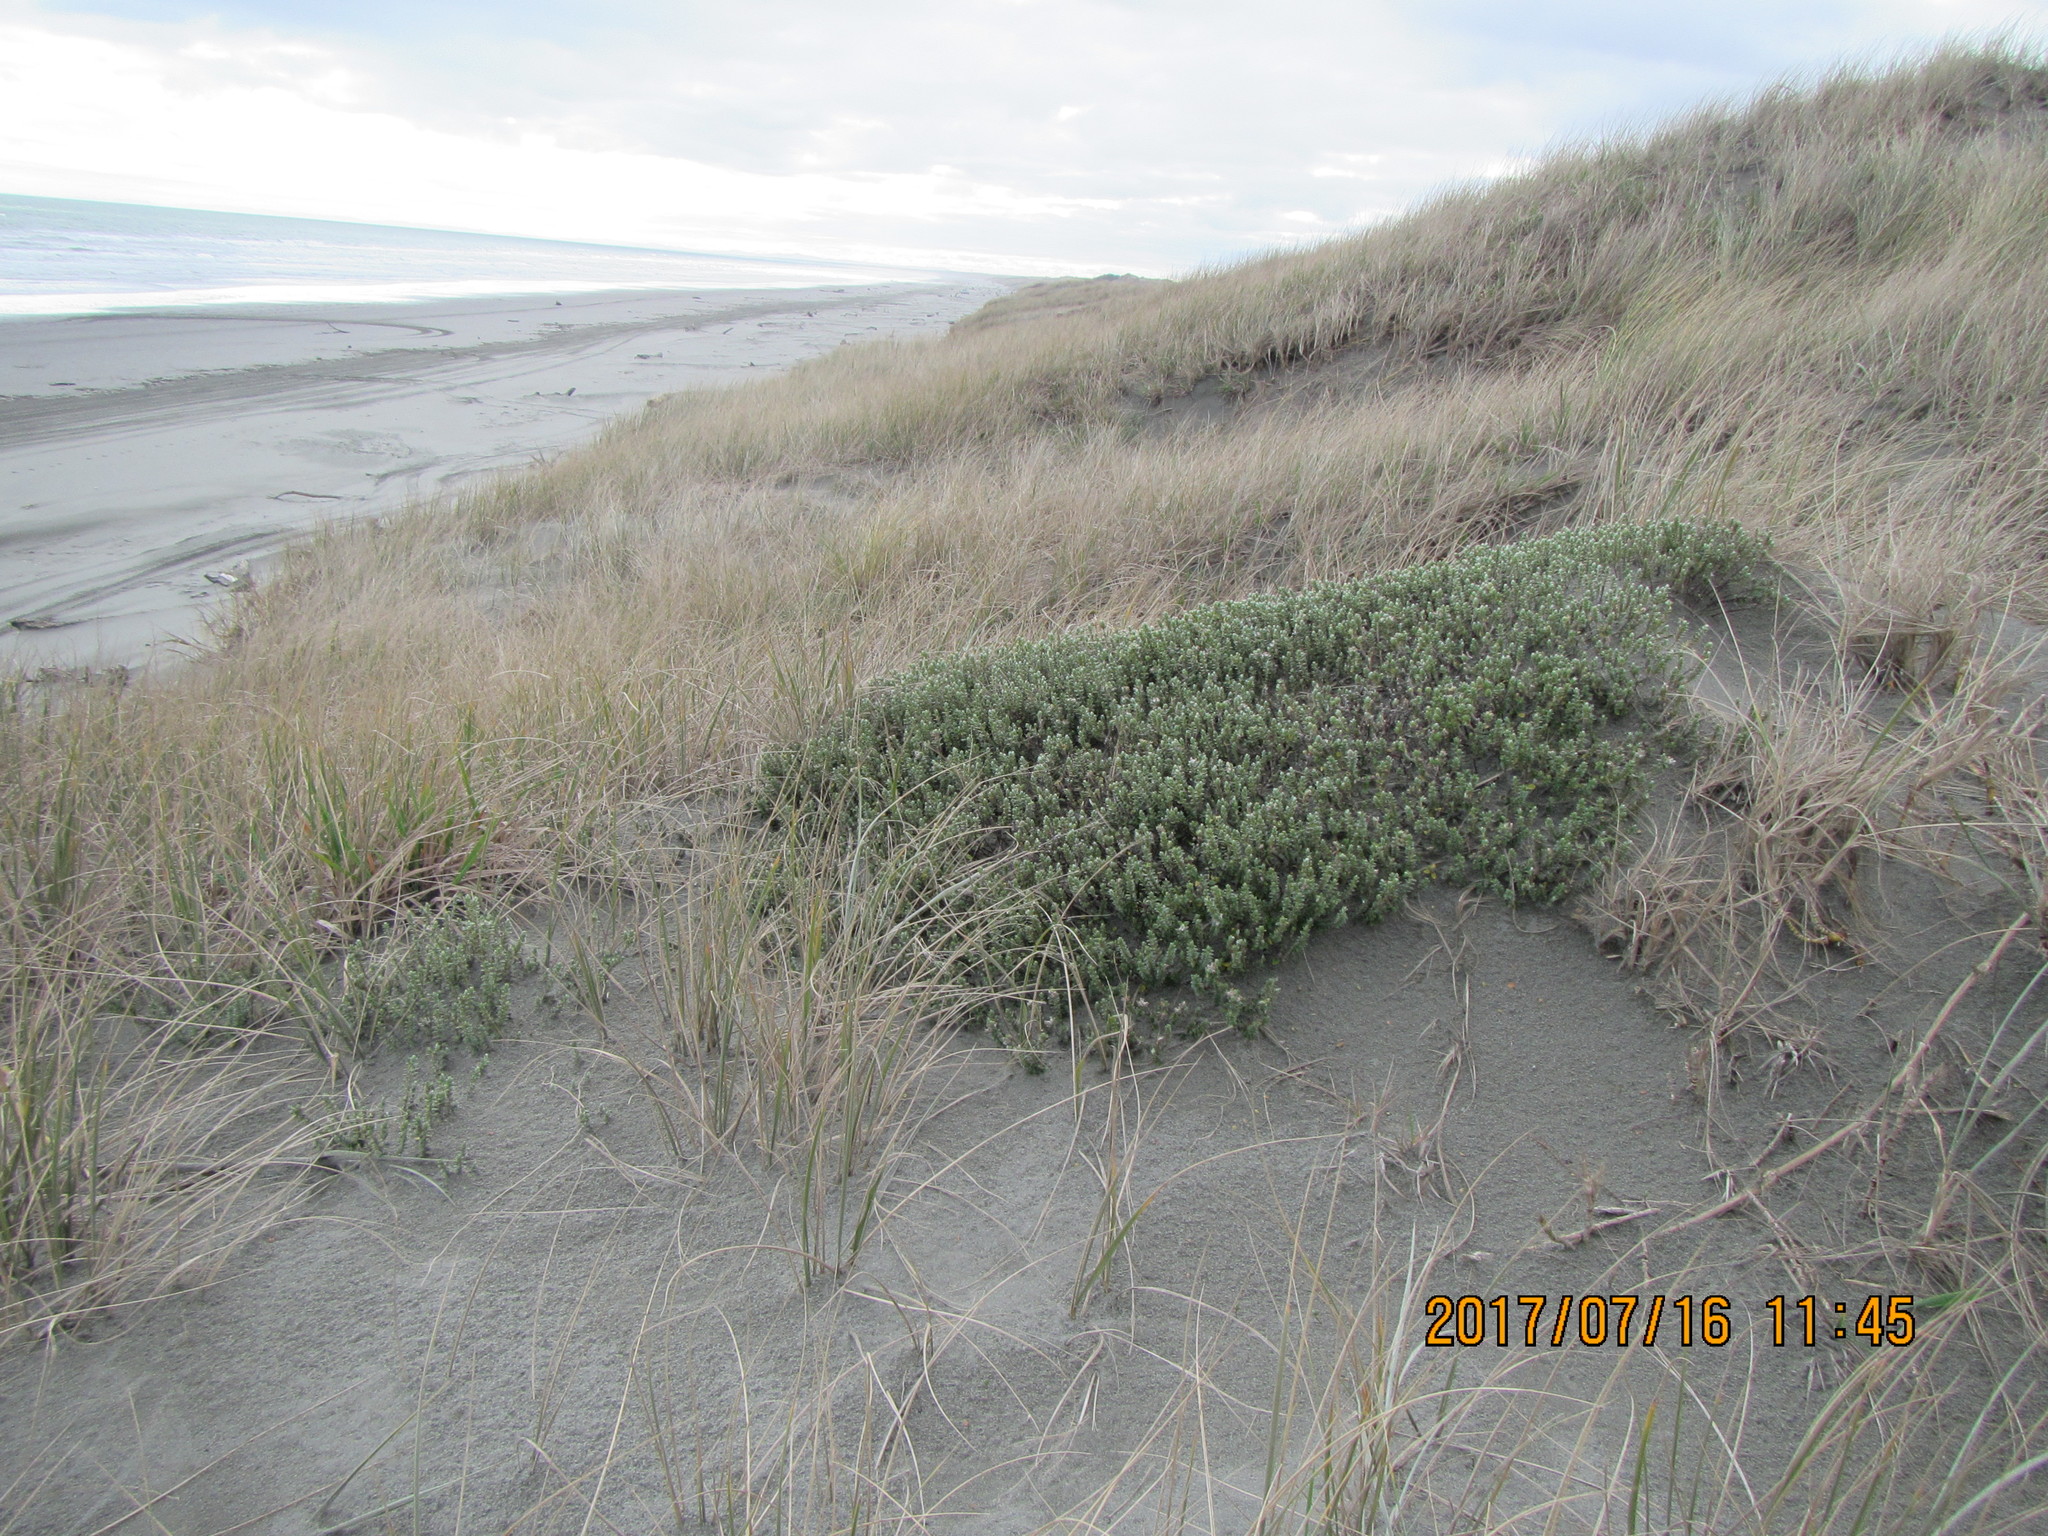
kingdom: Plantae
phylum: Tracheophyta
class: Magnoliopsida
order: Malvales
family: Thymelaeaceae
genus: Pimelea
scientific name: Pimelea villosa
